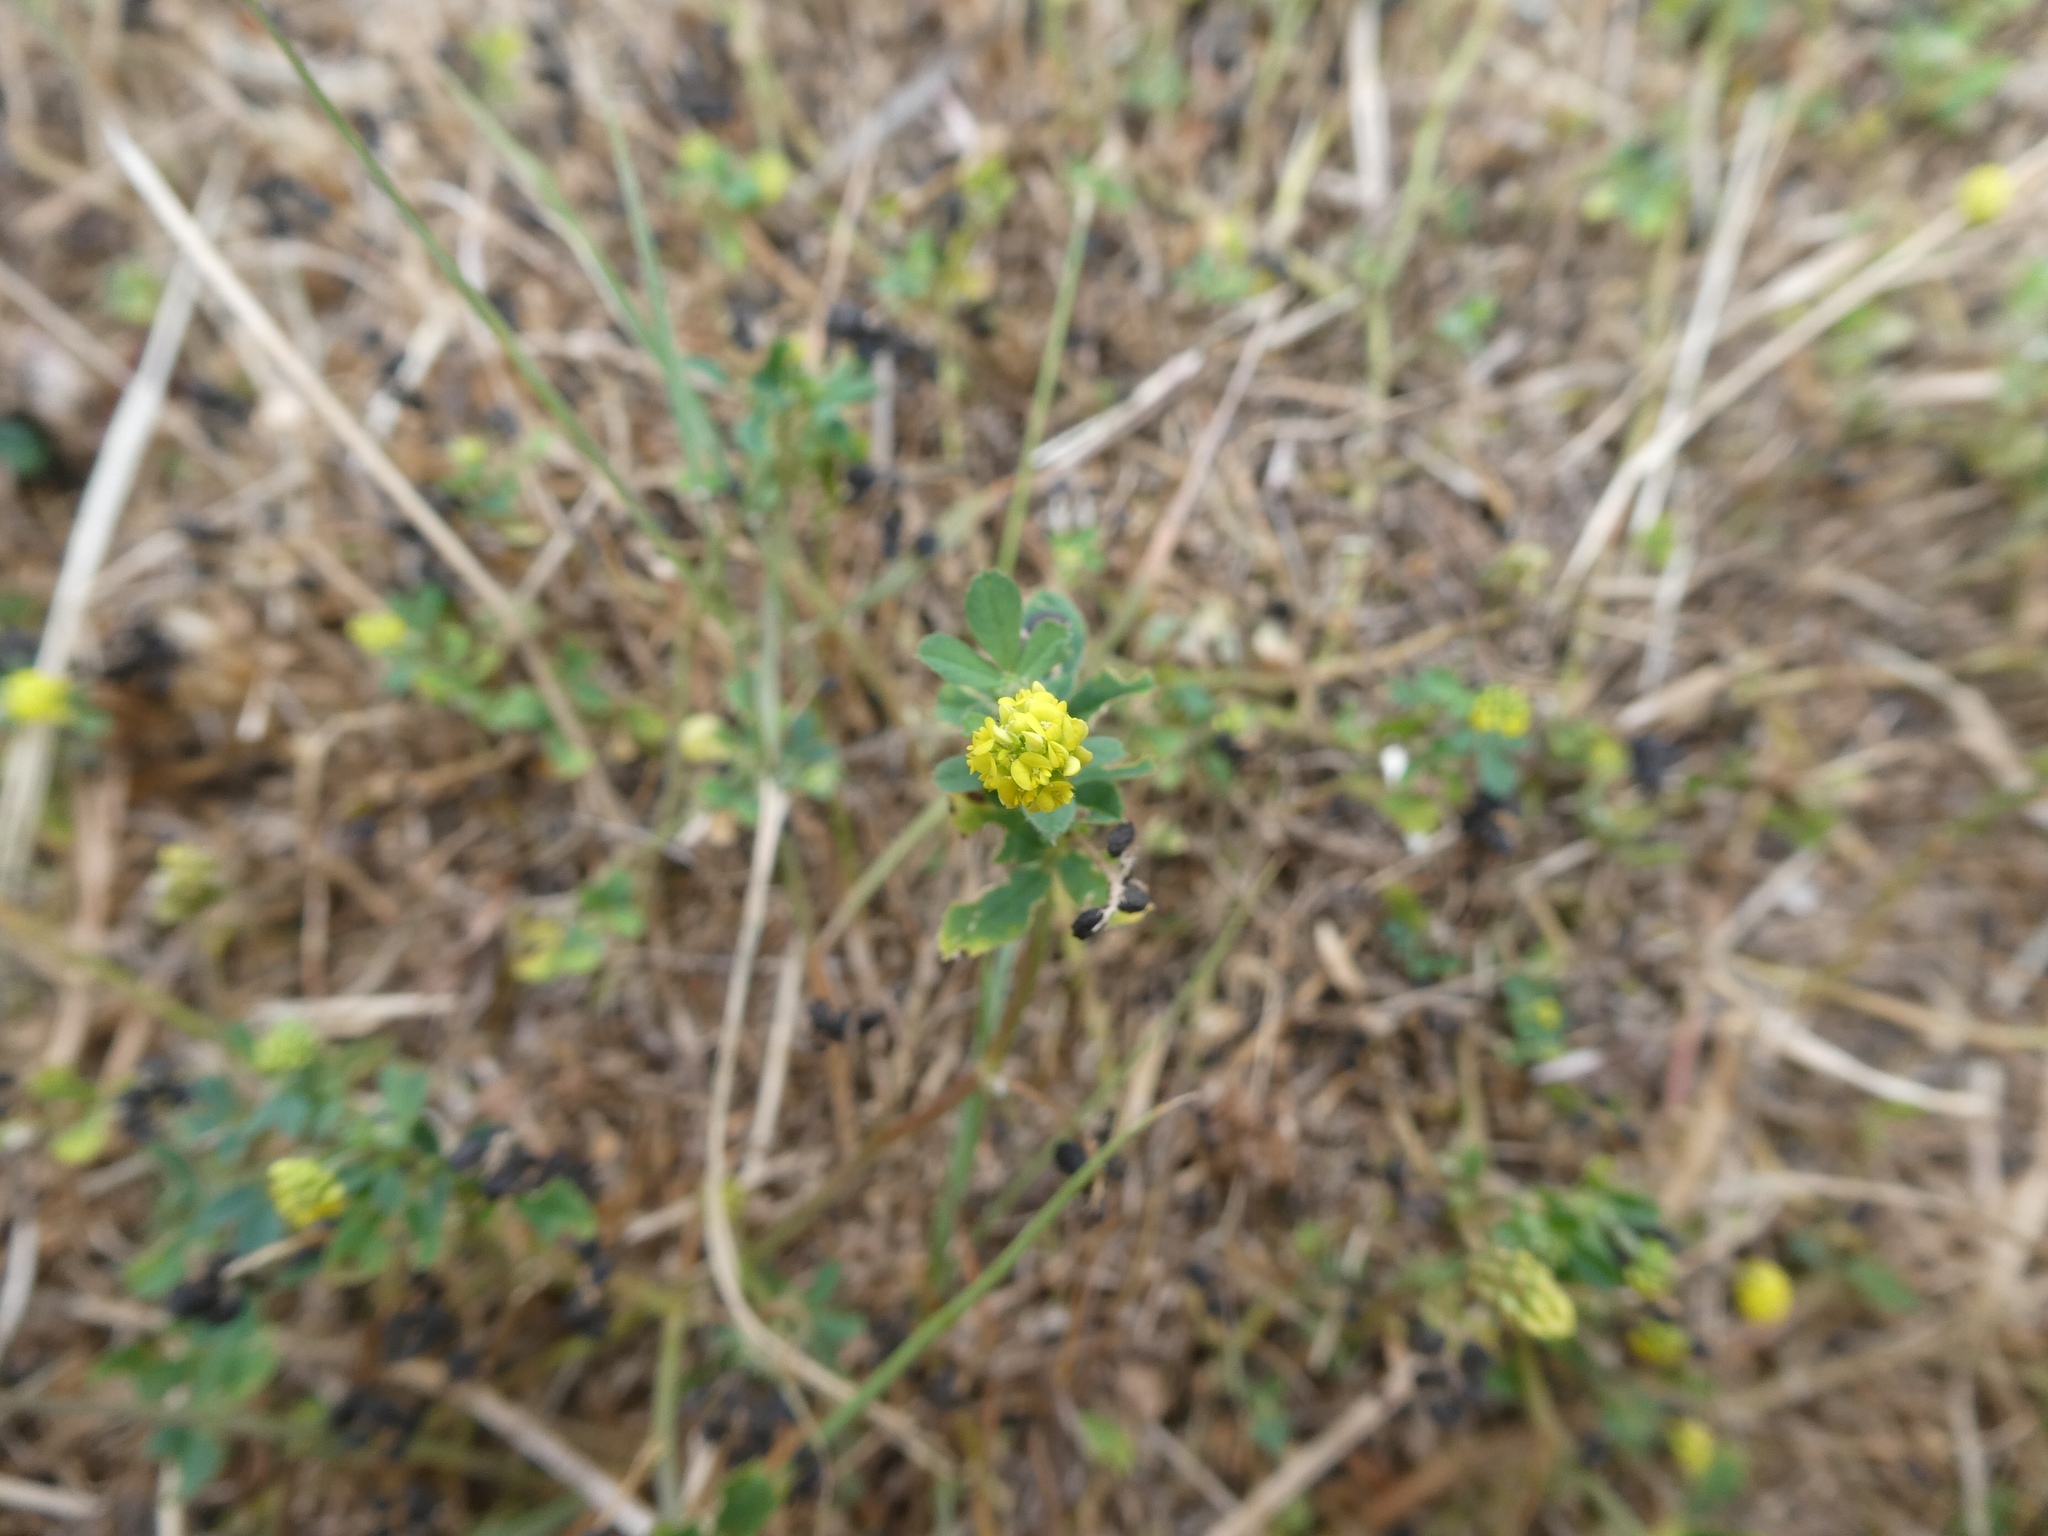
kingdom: Plantae
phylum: Tracheophyta
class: Magnoliopsida
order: Fabales
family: Fabaceae
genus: Medicago
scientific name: Medicago lupulina
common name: Black medick
